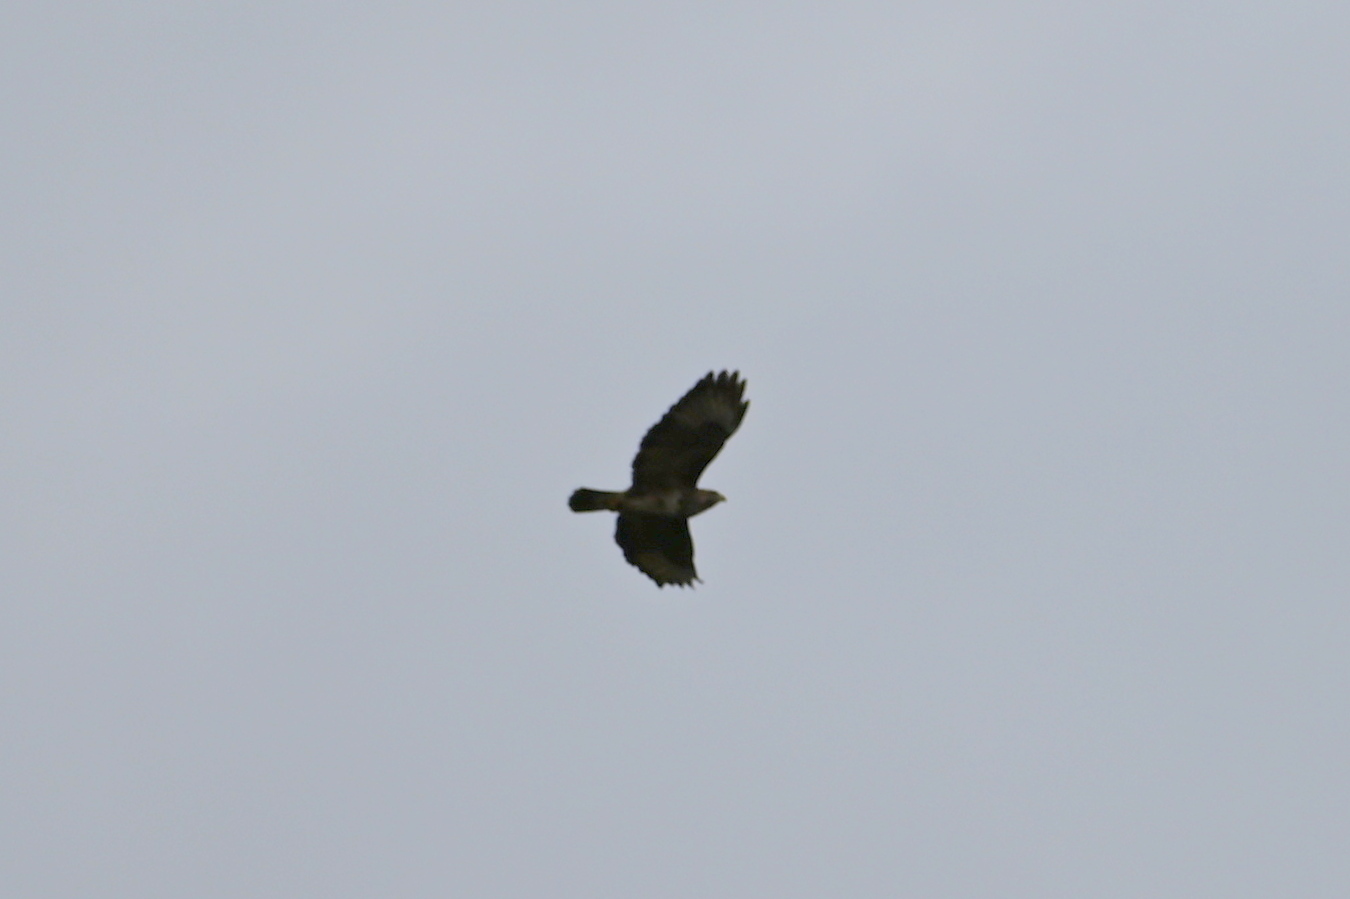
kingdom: Animalia
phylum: Chordata
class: Aves
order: Accipitriformes
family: Accipitridae
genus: Buteo
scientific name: Buteo buteo
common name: Common buzzard
